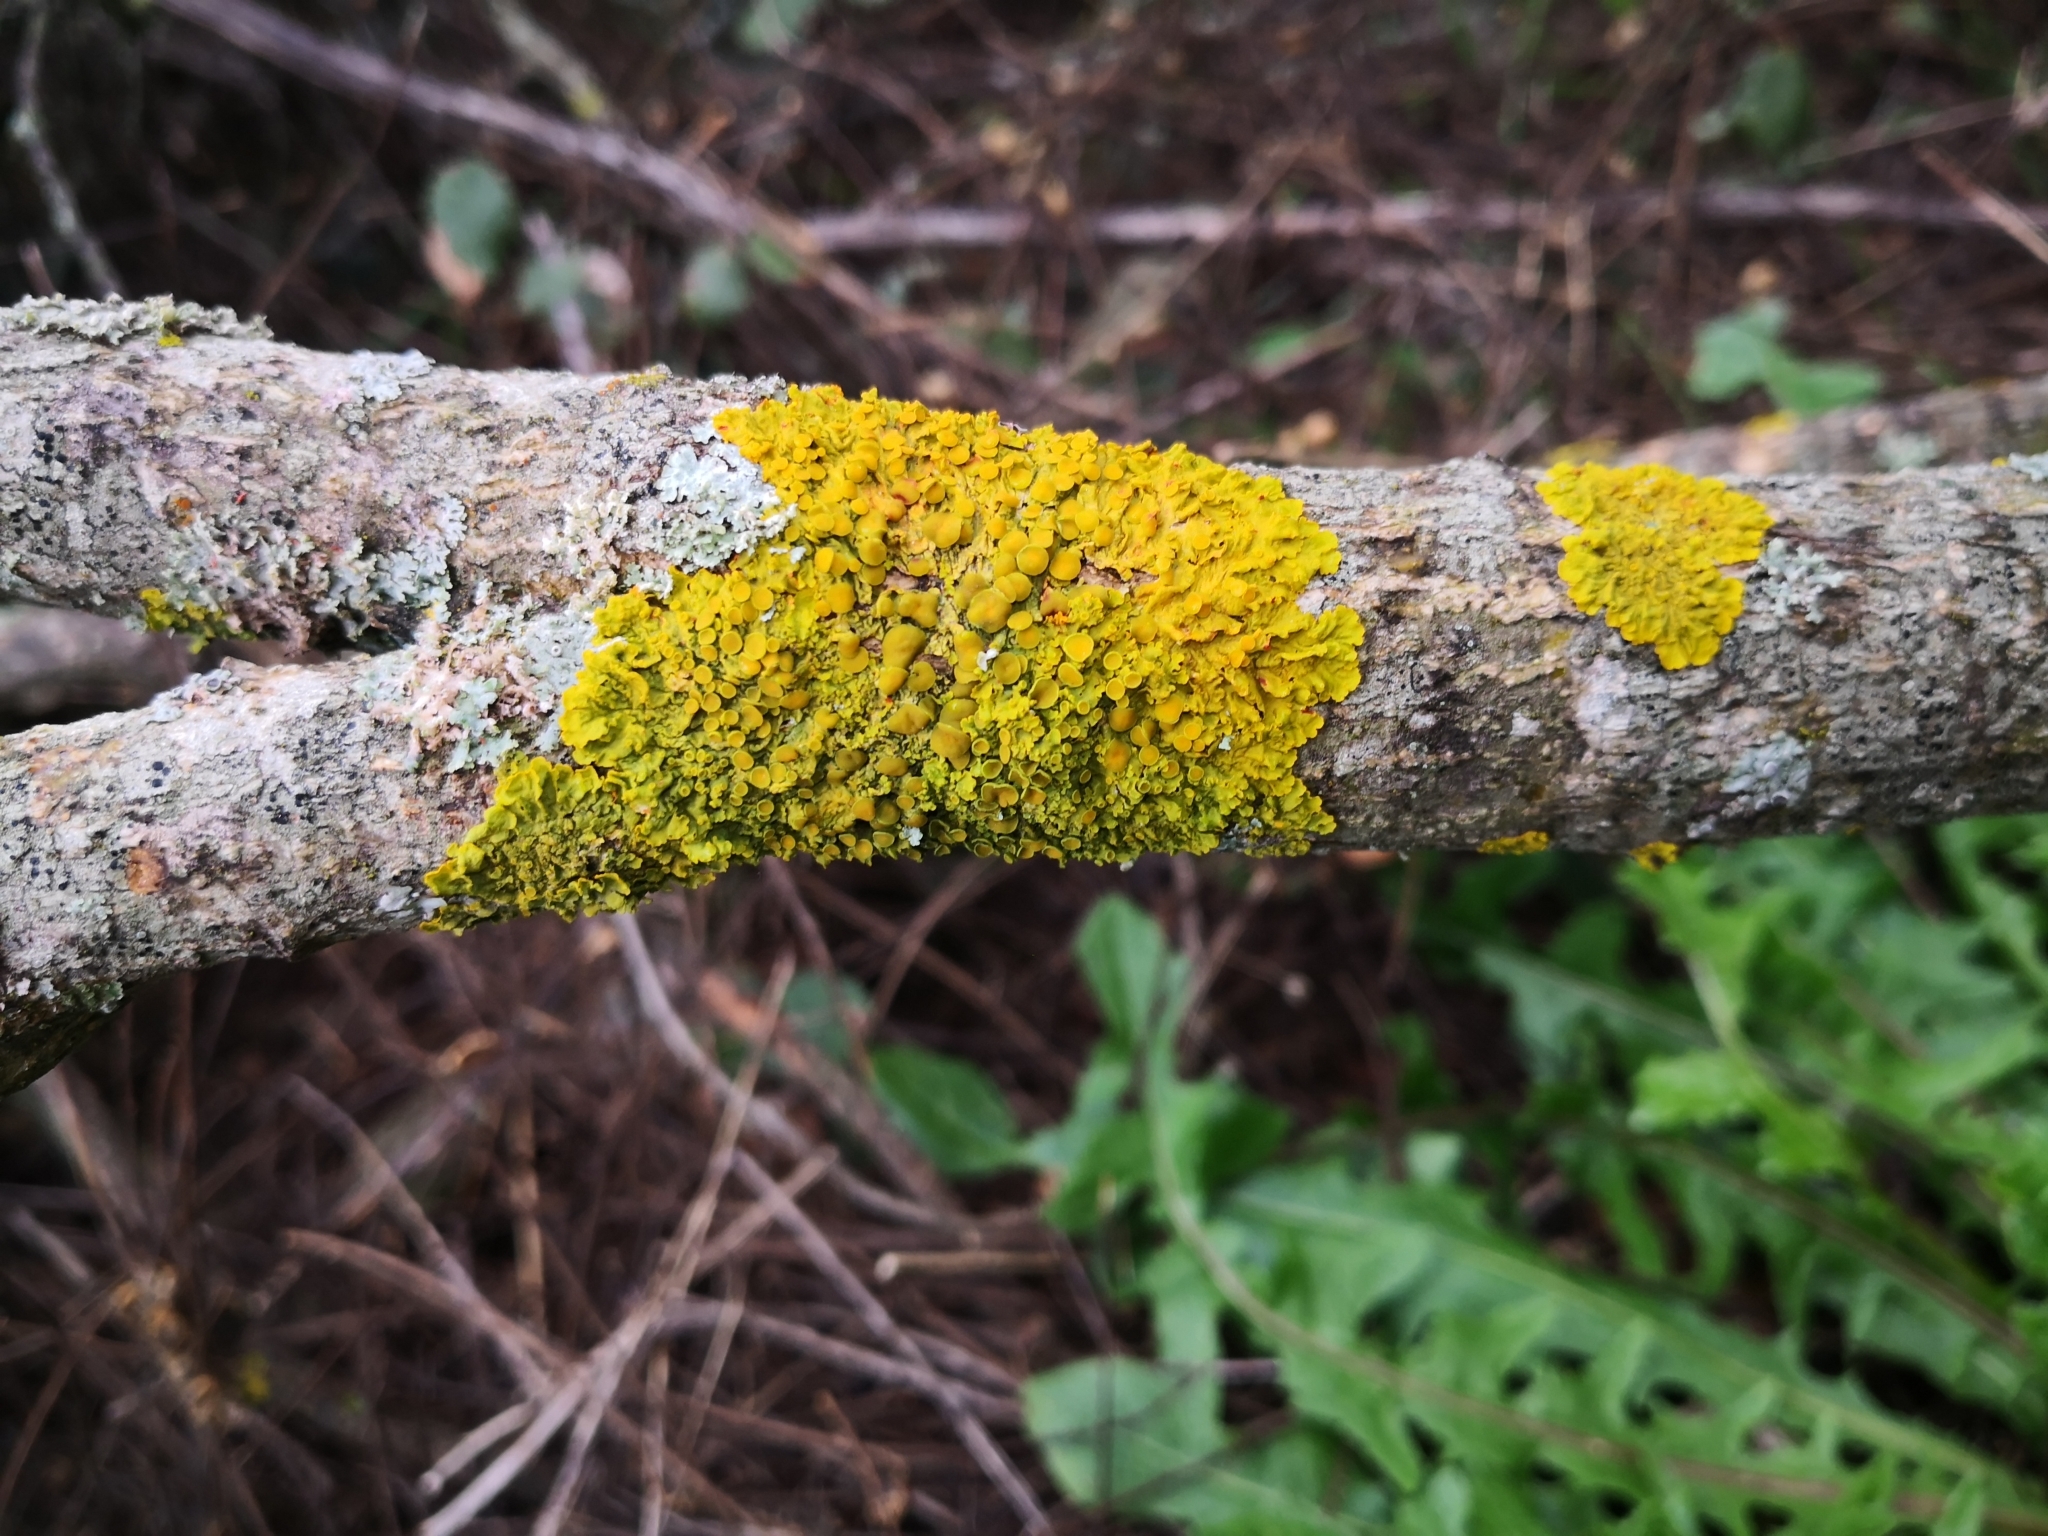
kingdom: Fungi
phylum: Ascomycota
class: Lecanoromycetes
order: Teloschistales
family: Teloschistaceae
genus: Xanthoria
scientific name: Xanthoria parietina
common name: Common orange lichen
